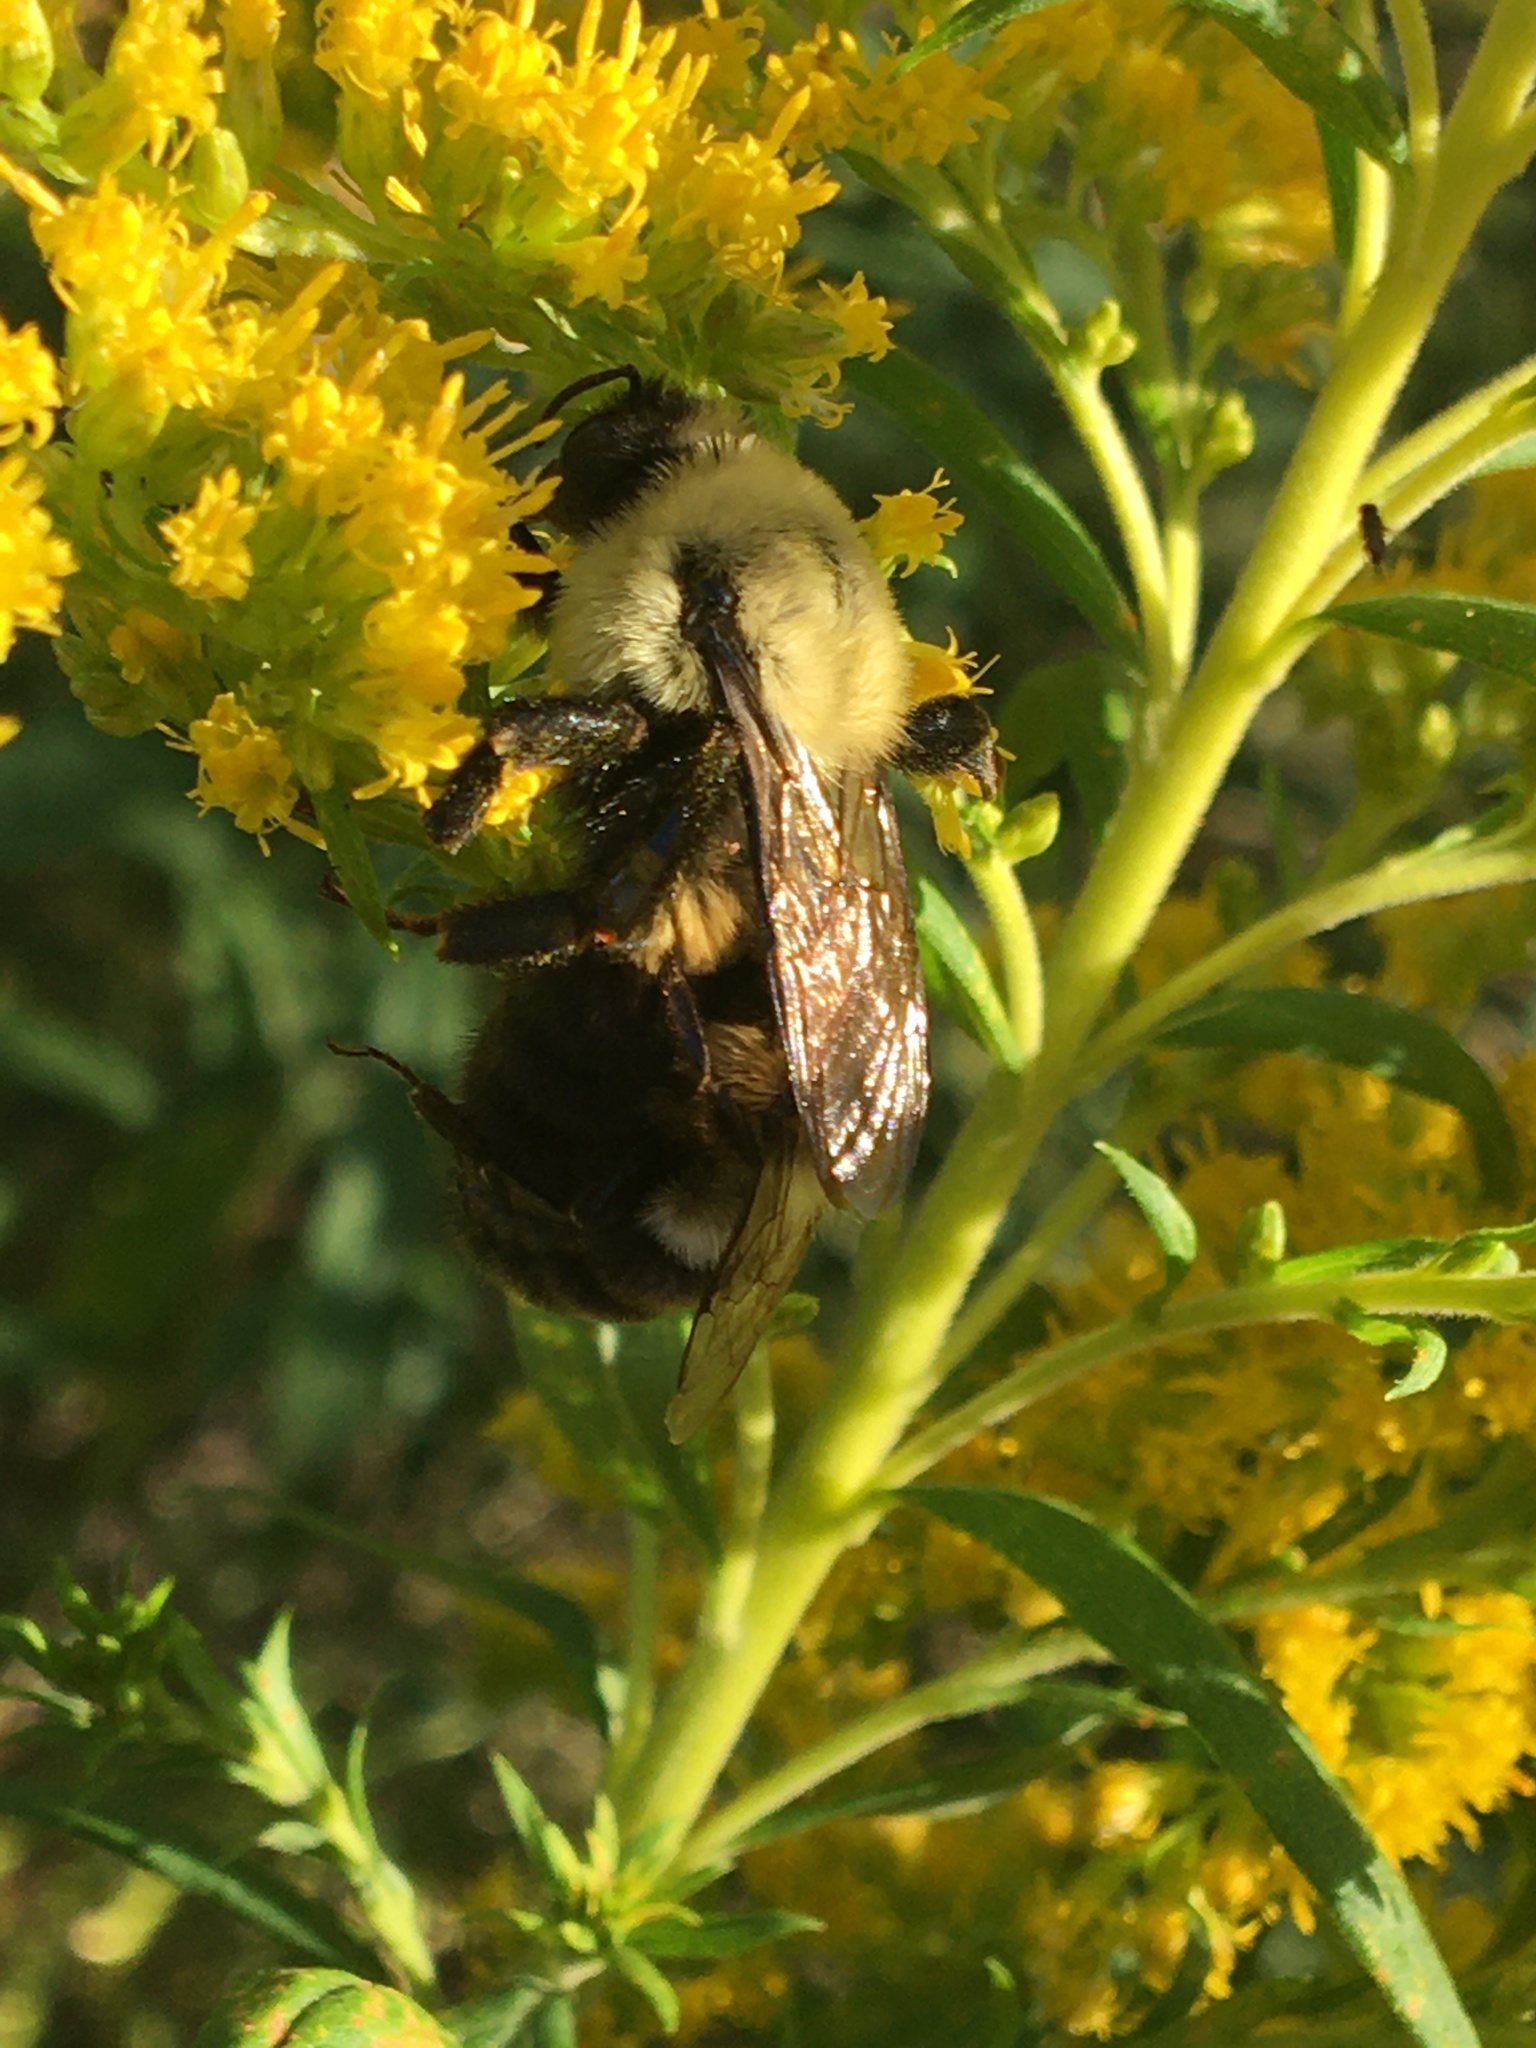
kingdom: Animalia
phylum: Arthropoda
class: Insecta
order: Hymenoptera
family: Apidae
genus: Bombus
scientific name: Bombus impatiens
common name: Common eastern bumble bee
